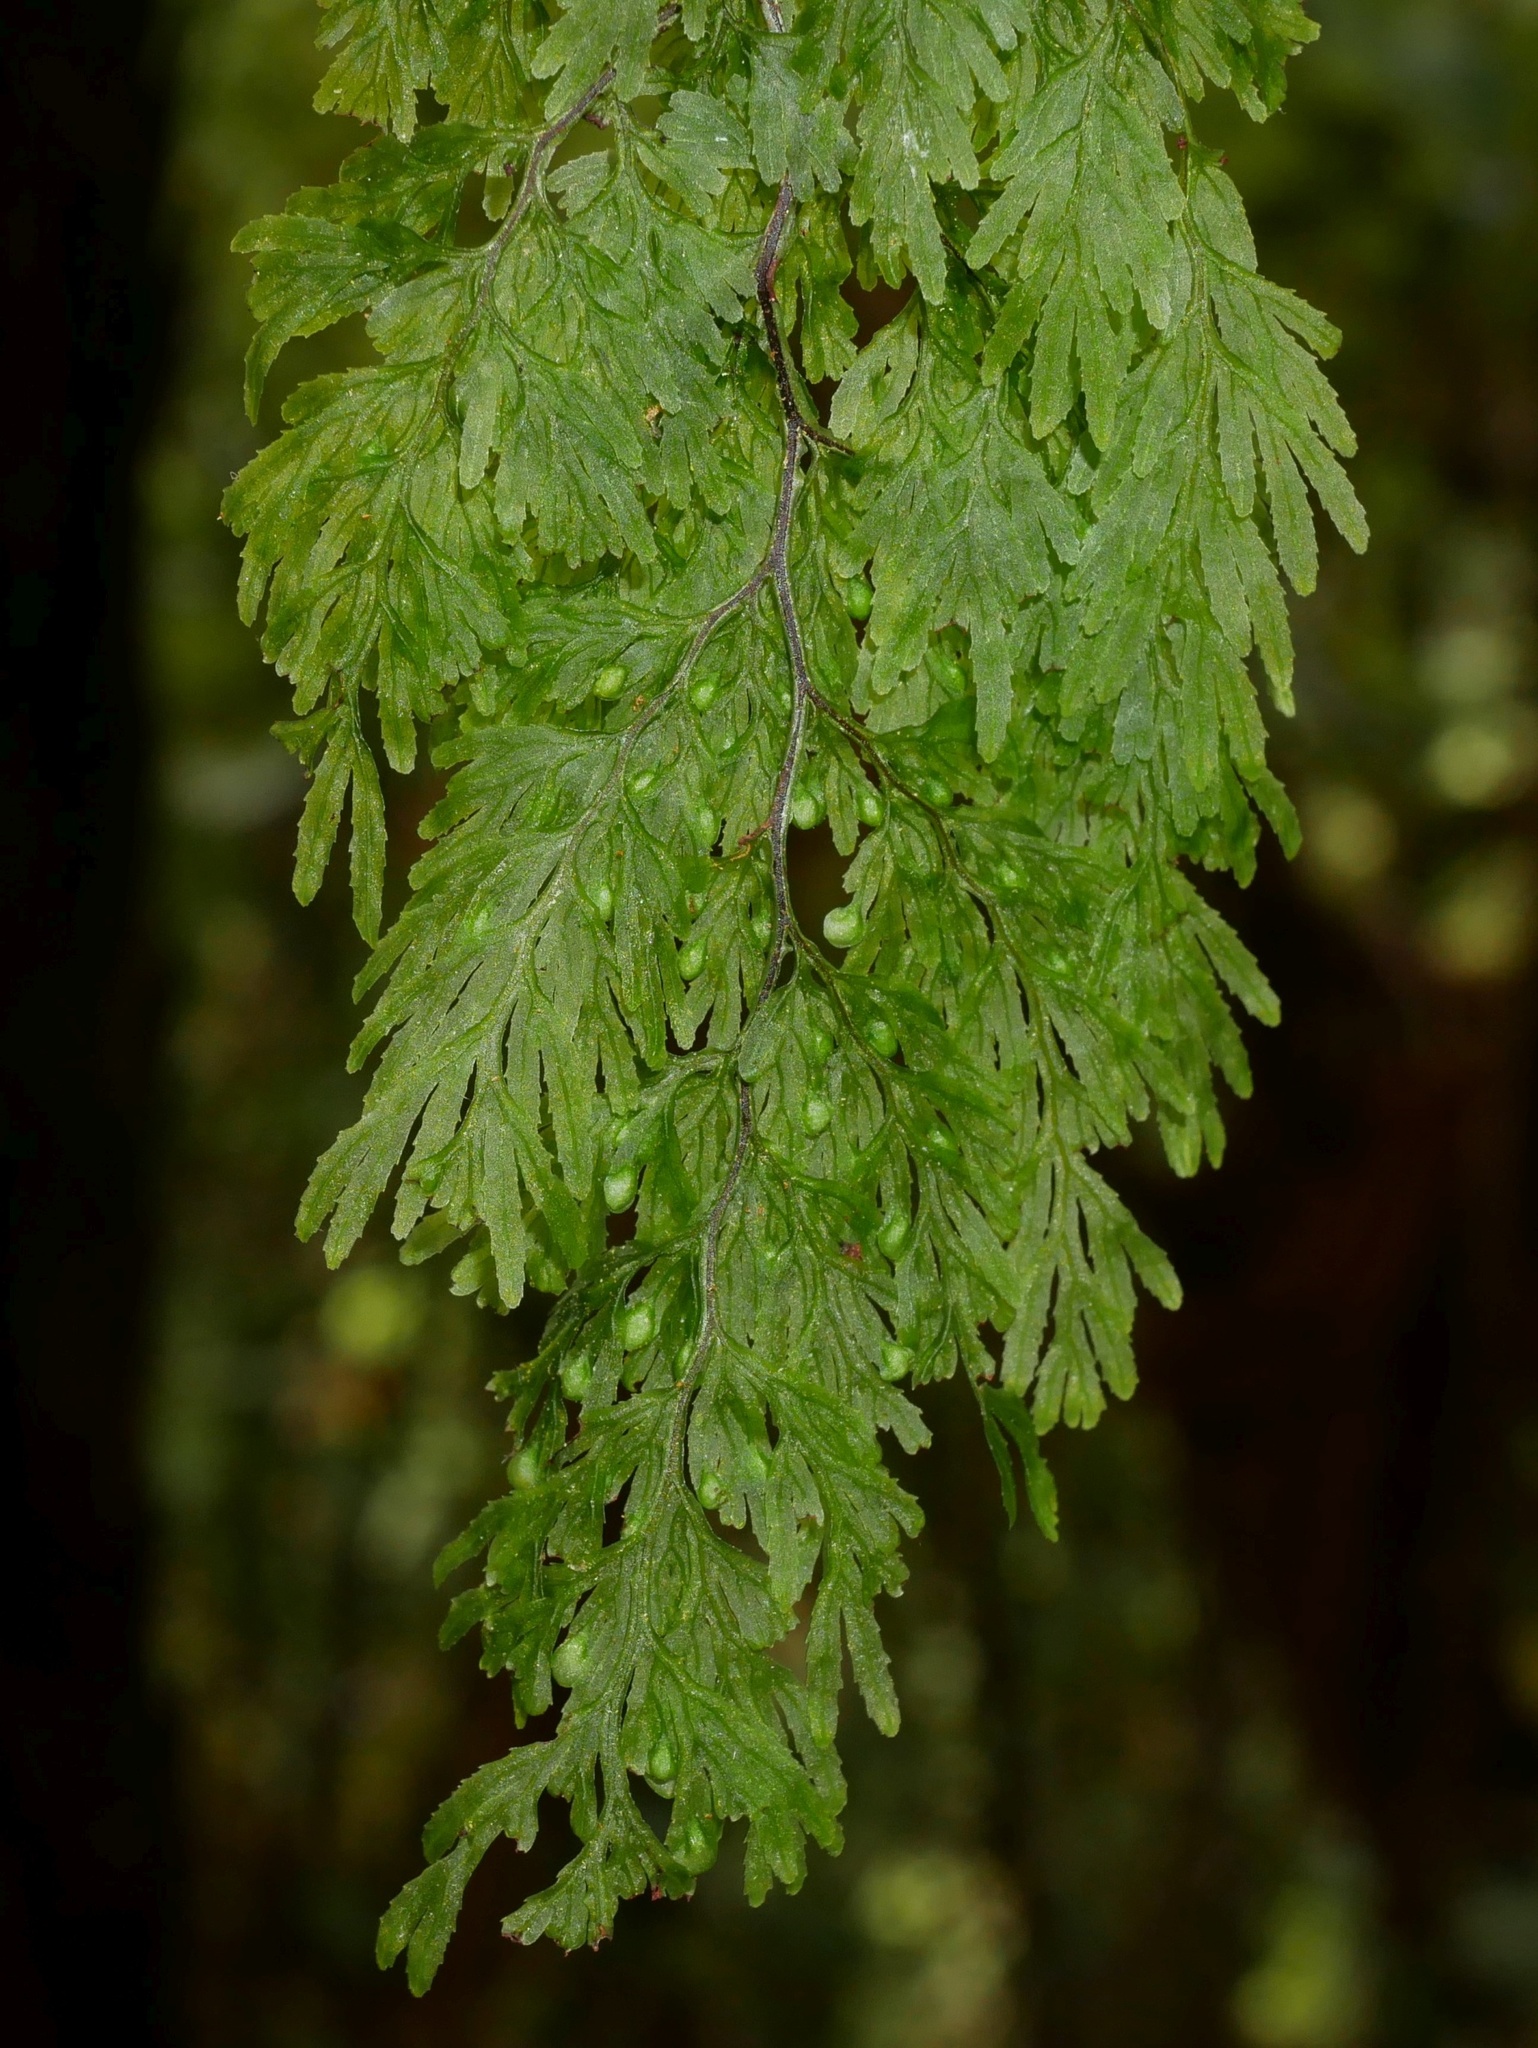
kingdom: Plantae
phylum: Tracheophyta
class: Polypodiopsida
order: Hymenophyllales
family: Hymenophyllaceae
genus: Hymenophyllum
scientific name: Hymenophyllum bivalve
